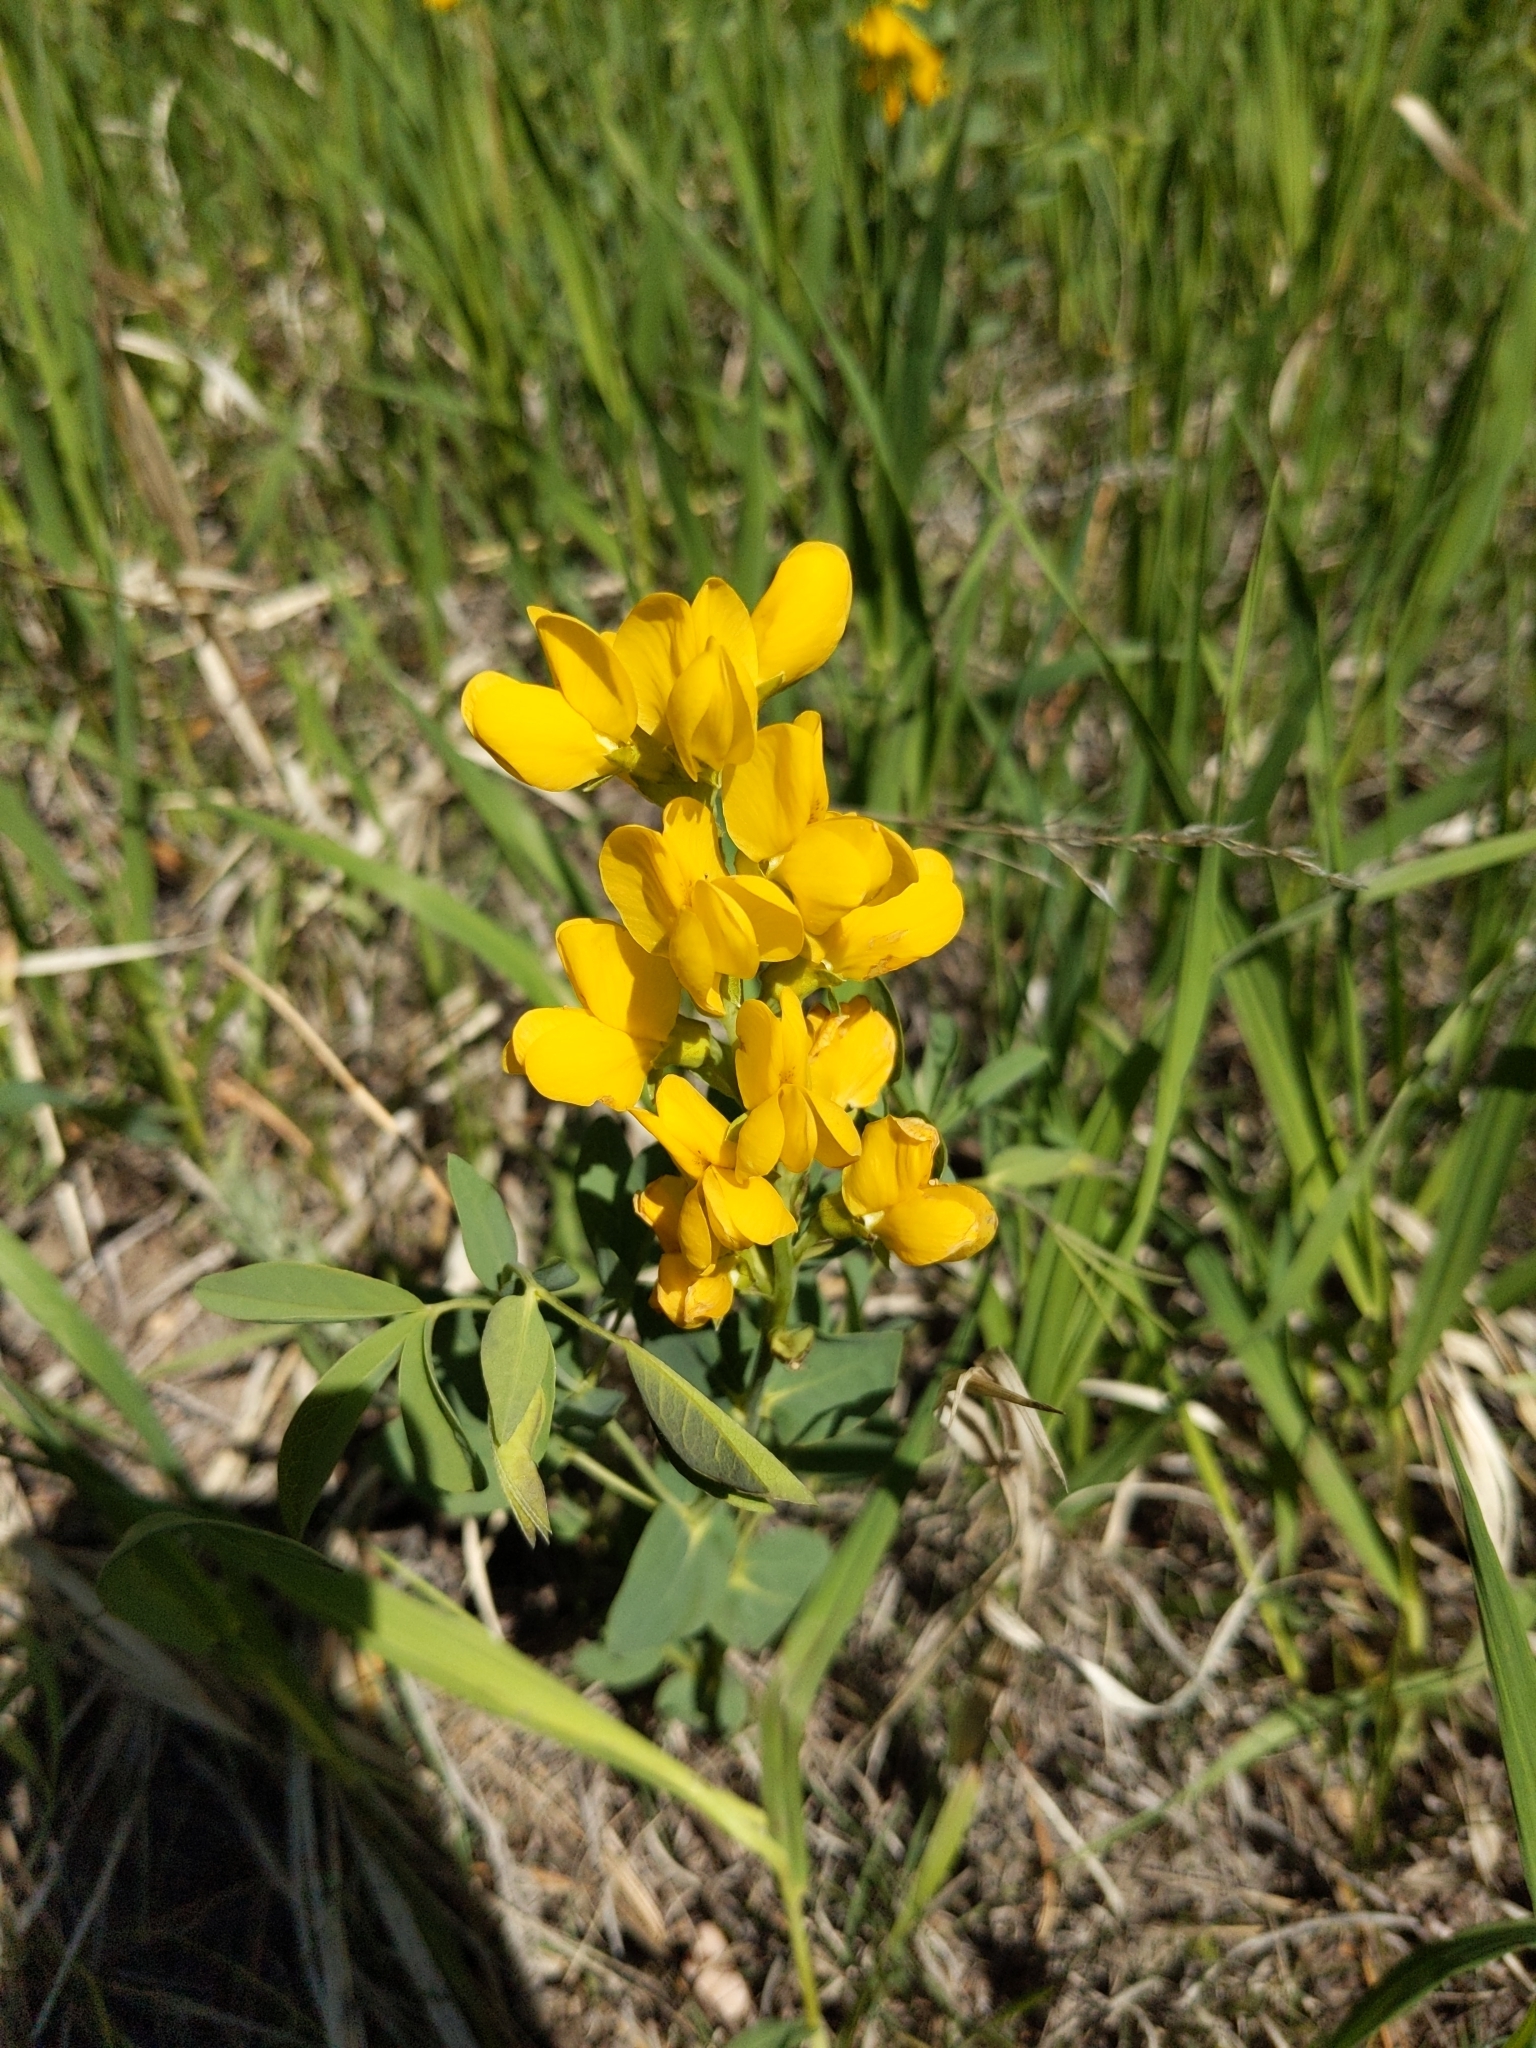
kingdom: Plantae
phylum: Tracheophyta
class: Magnoliopsida
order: Fabales
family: Fabaceae
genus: Thermopsis
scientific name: Thermopsis rhombifolia
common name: Circle-pod-pea
